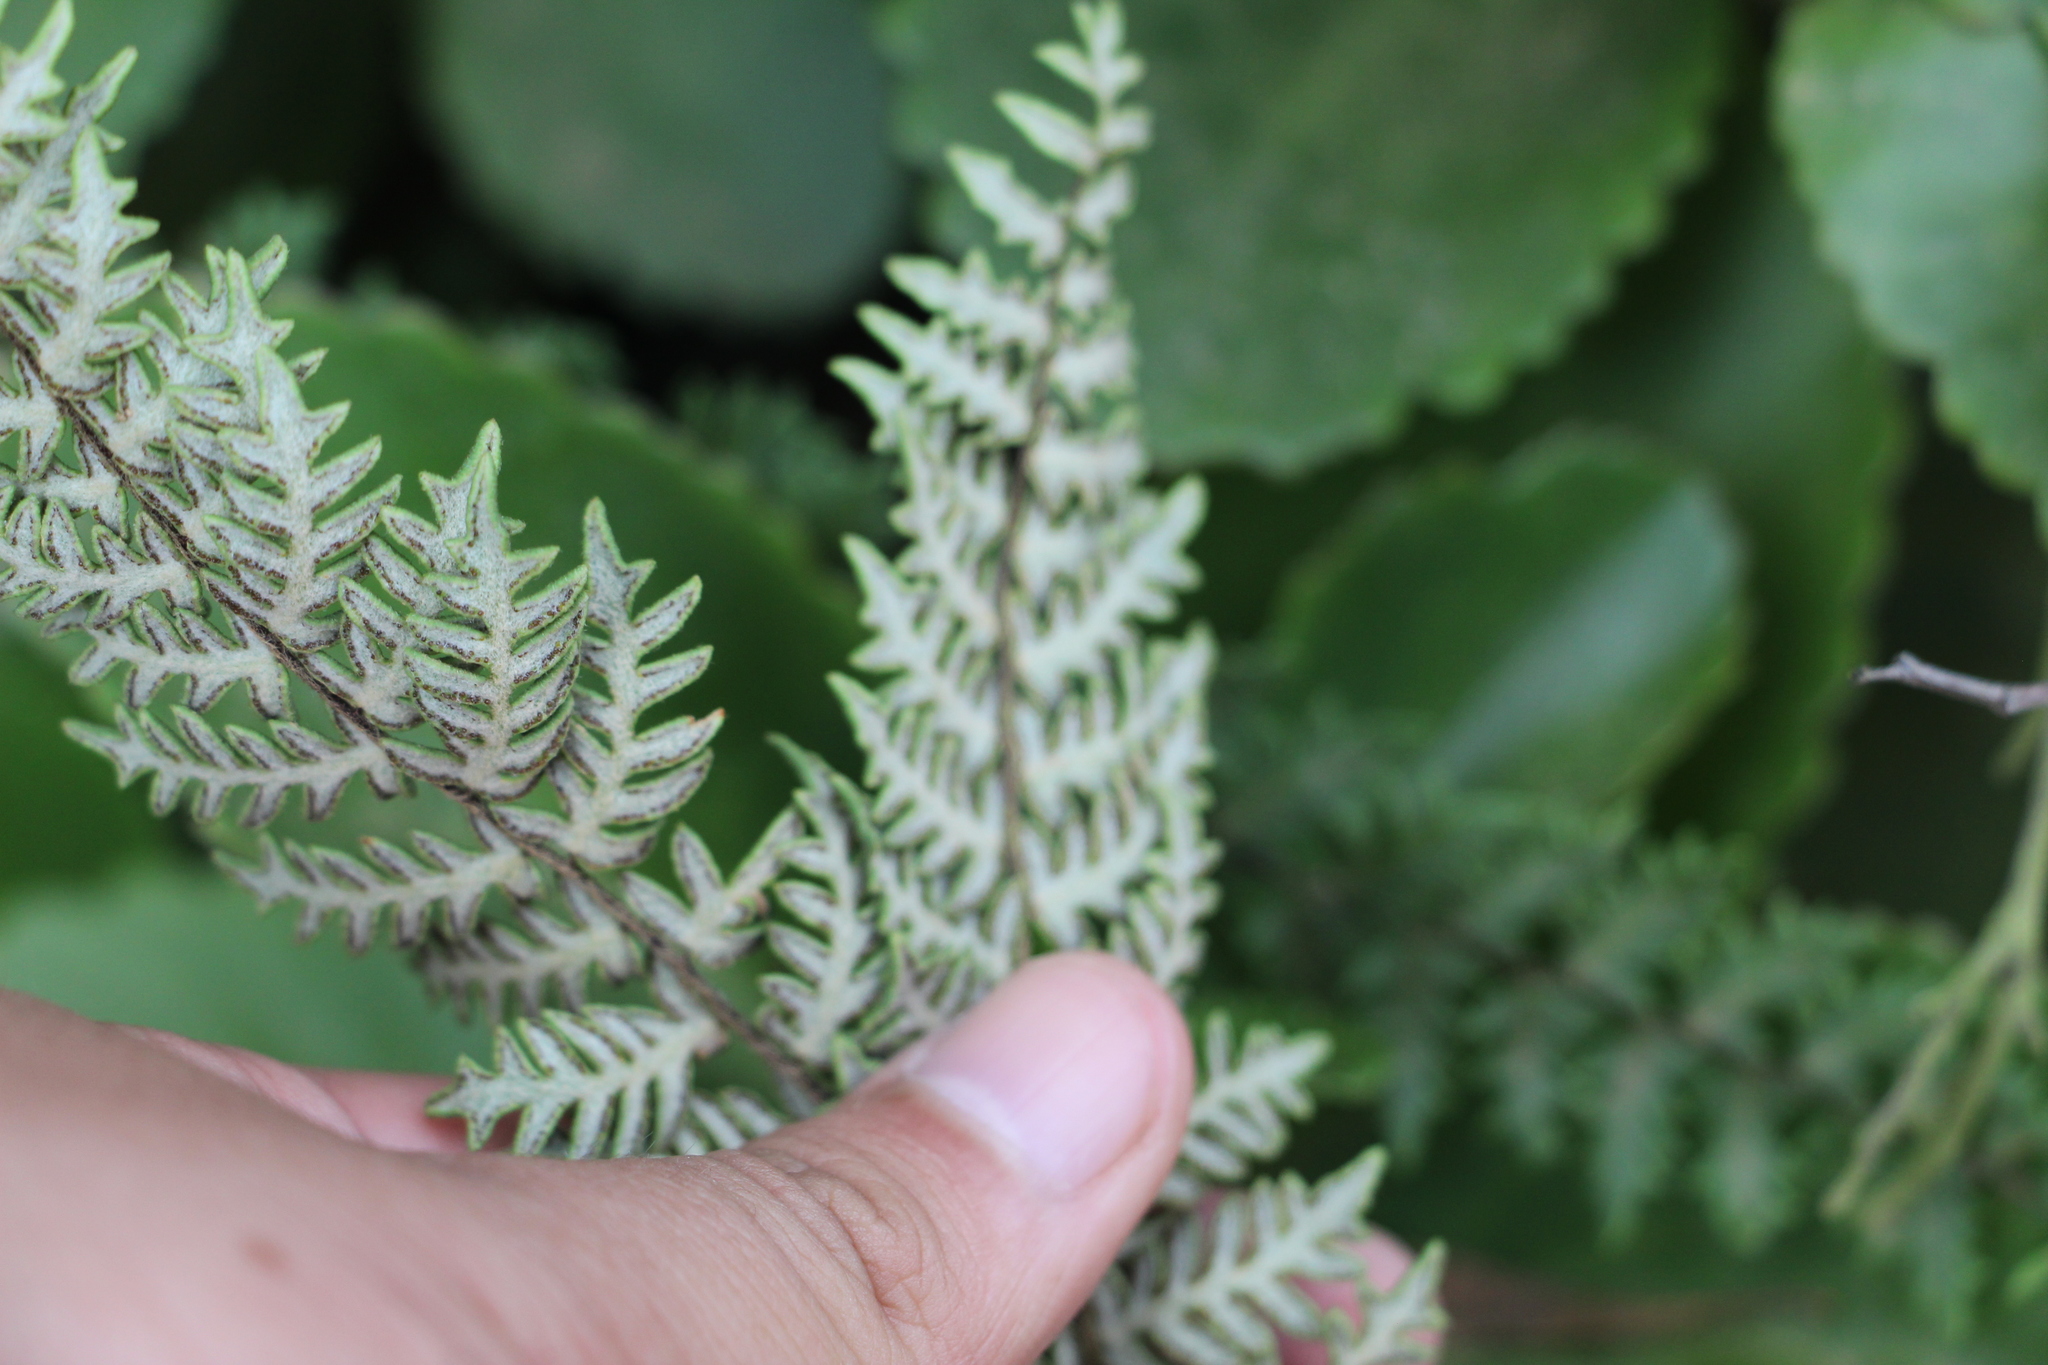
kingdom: Plantae
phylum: Tracheophyta
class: Polypodiopsida
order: Polypodiales
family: Pteridaceae
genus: Myriopteris
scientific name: Myriopteris aurea
